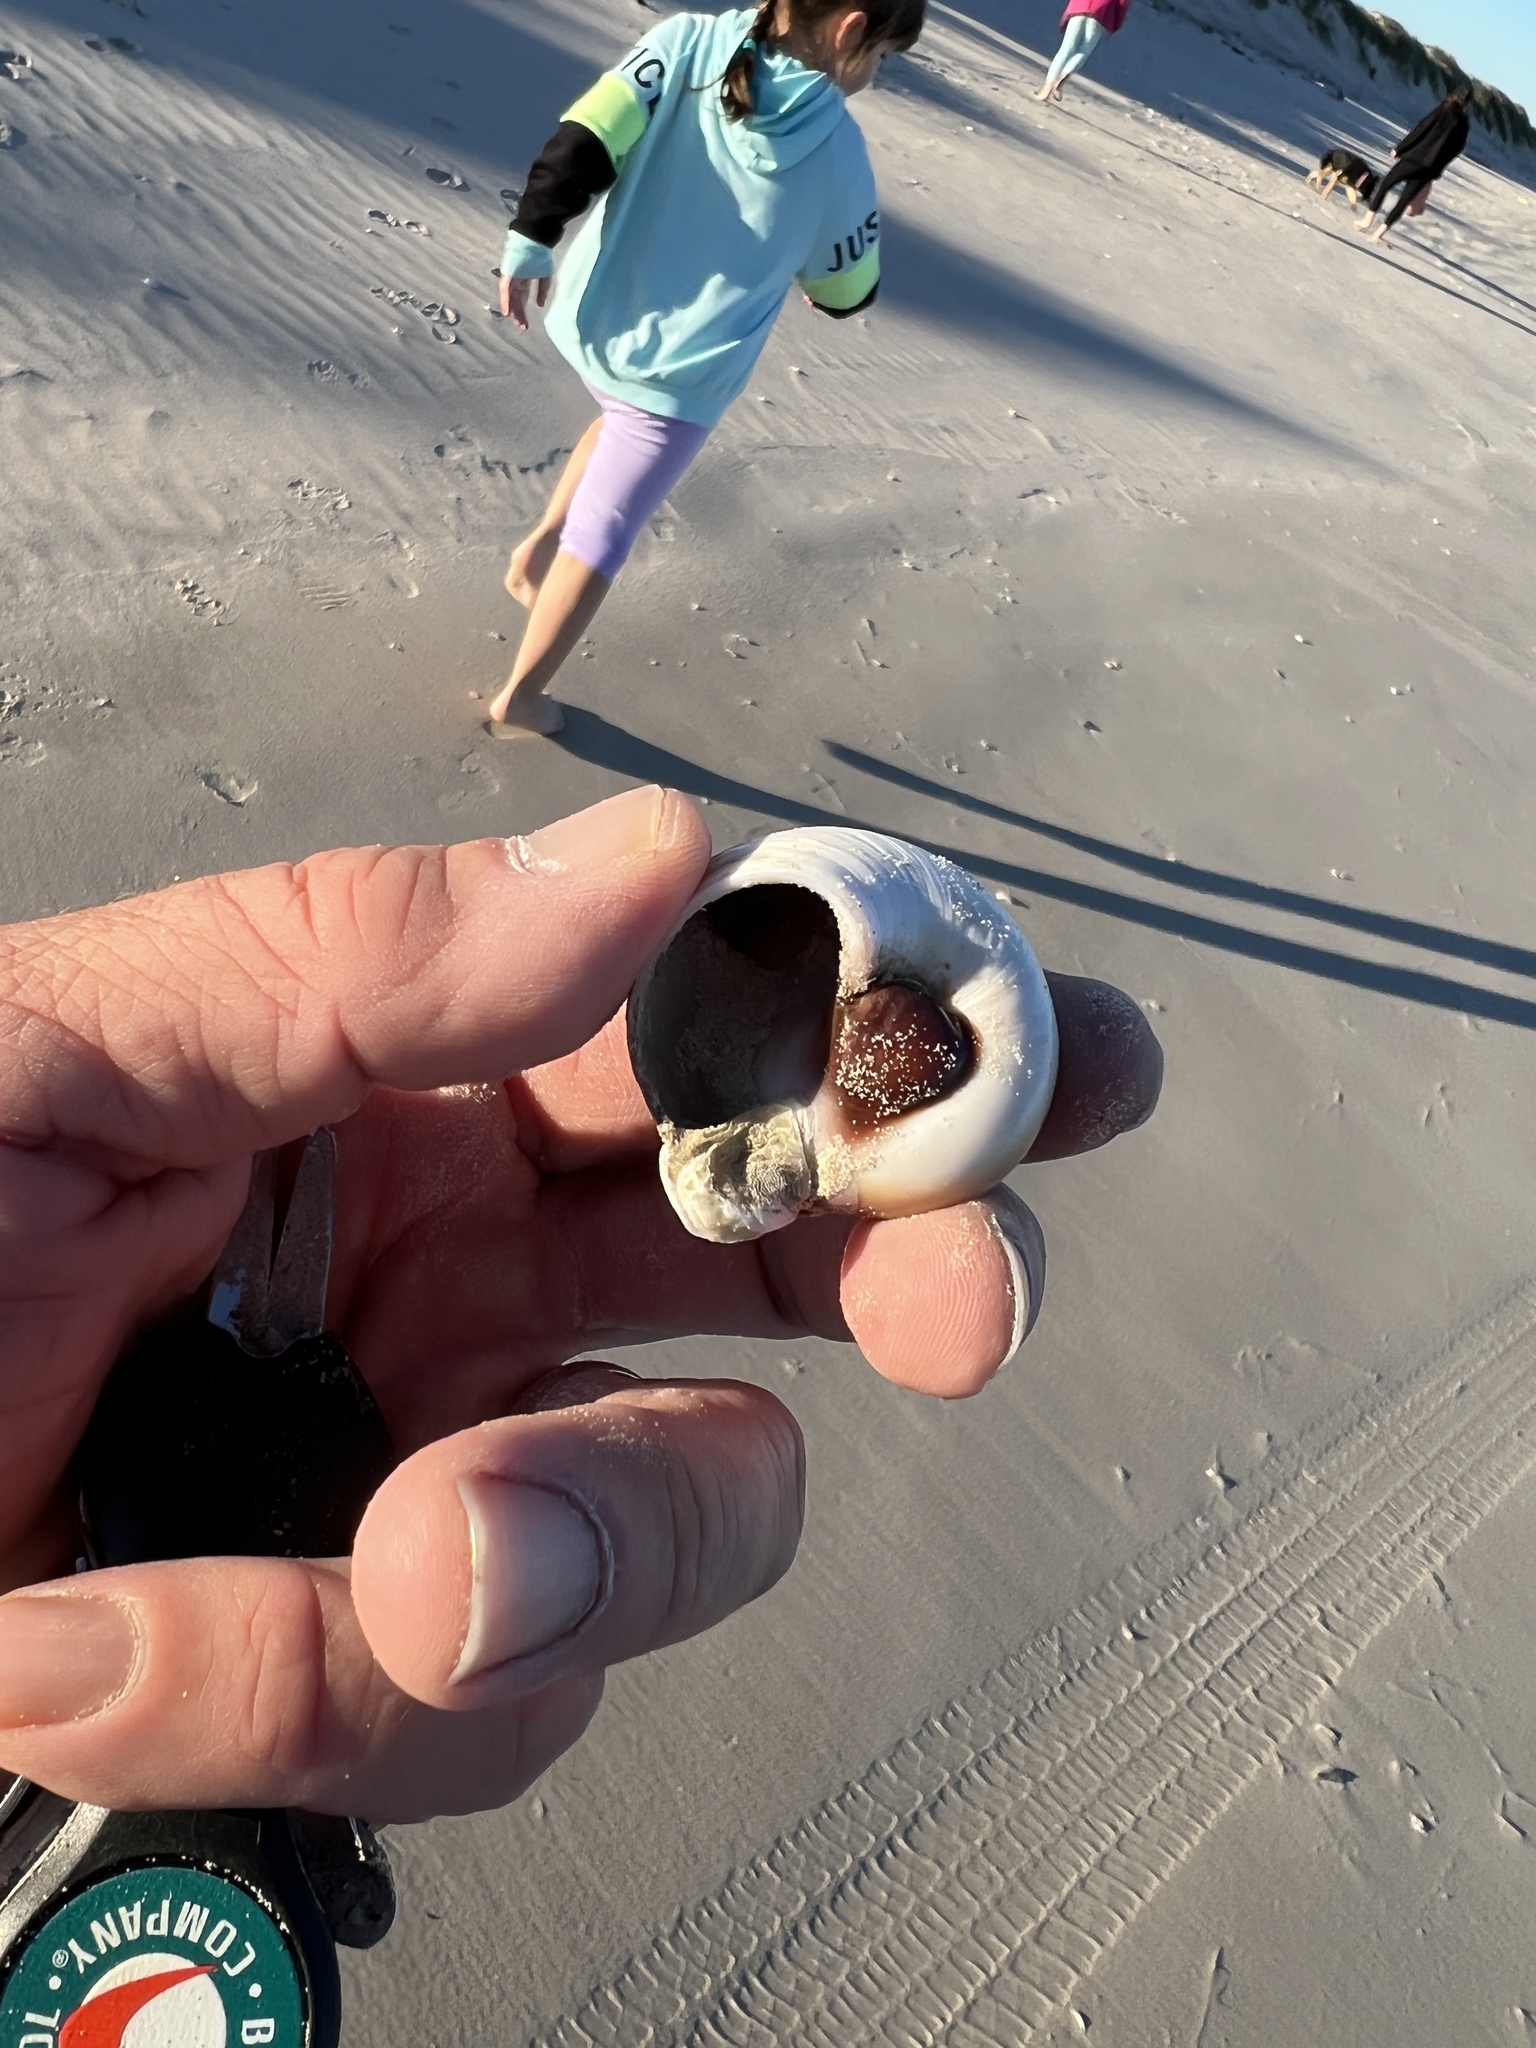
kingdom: Animalia
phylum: Mollusca
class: Gastropoda
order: Littorinimorpha
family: Naticidae
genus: Neverita
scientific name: Neverita duplicata
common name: Lobed moonsnail
